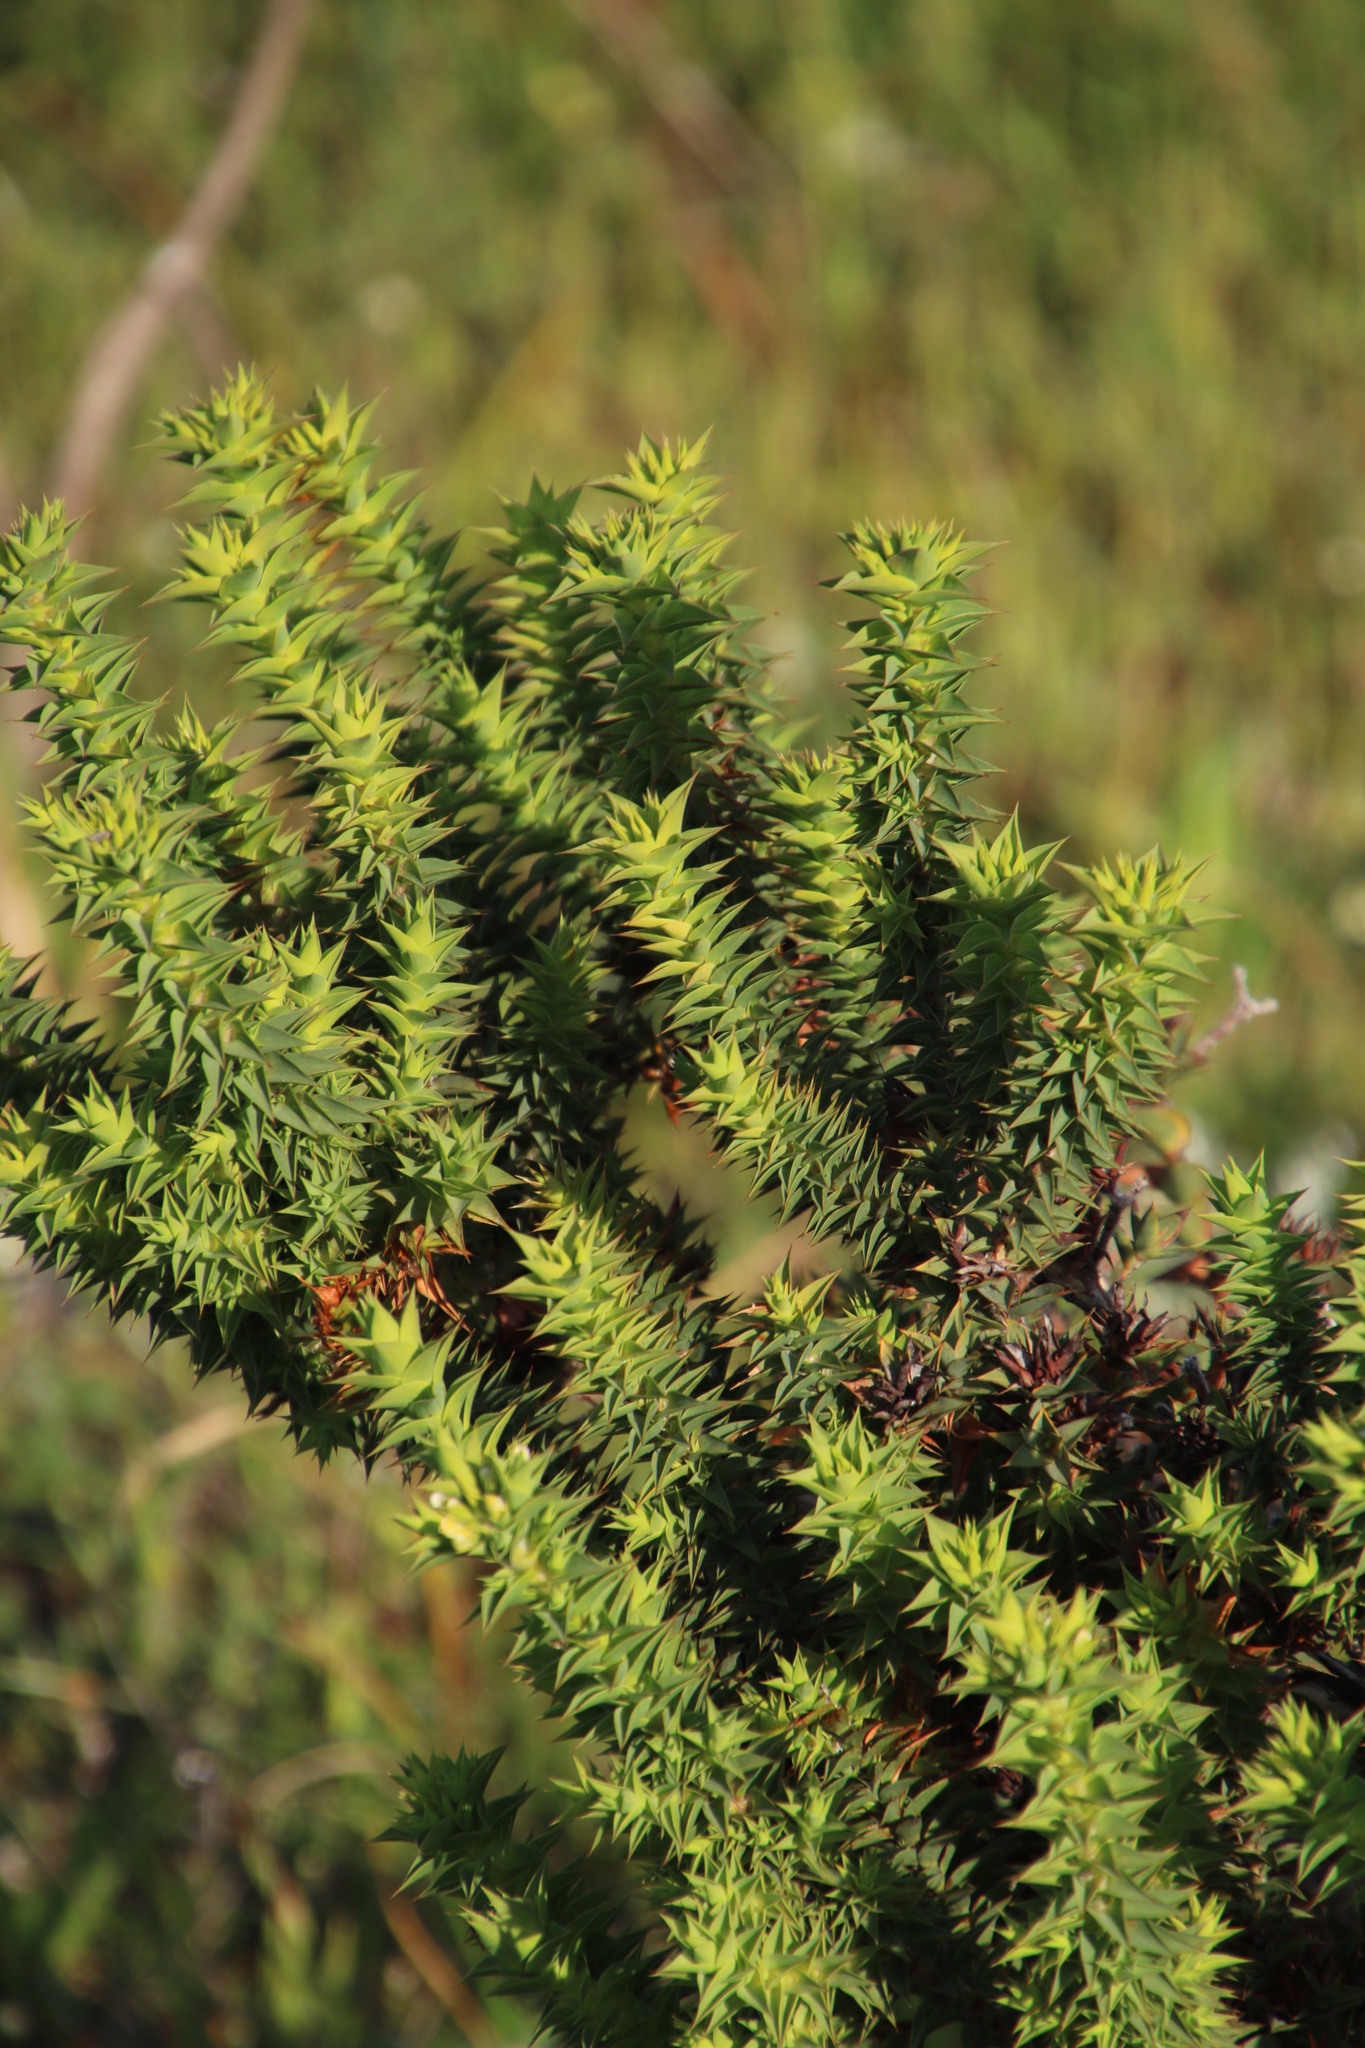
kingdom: Plantae
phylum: Tracheophyta
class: Magnoliopsida
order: Fabales
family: Fabaceae
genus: Aspalathus
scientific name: Aspalathus cordata
